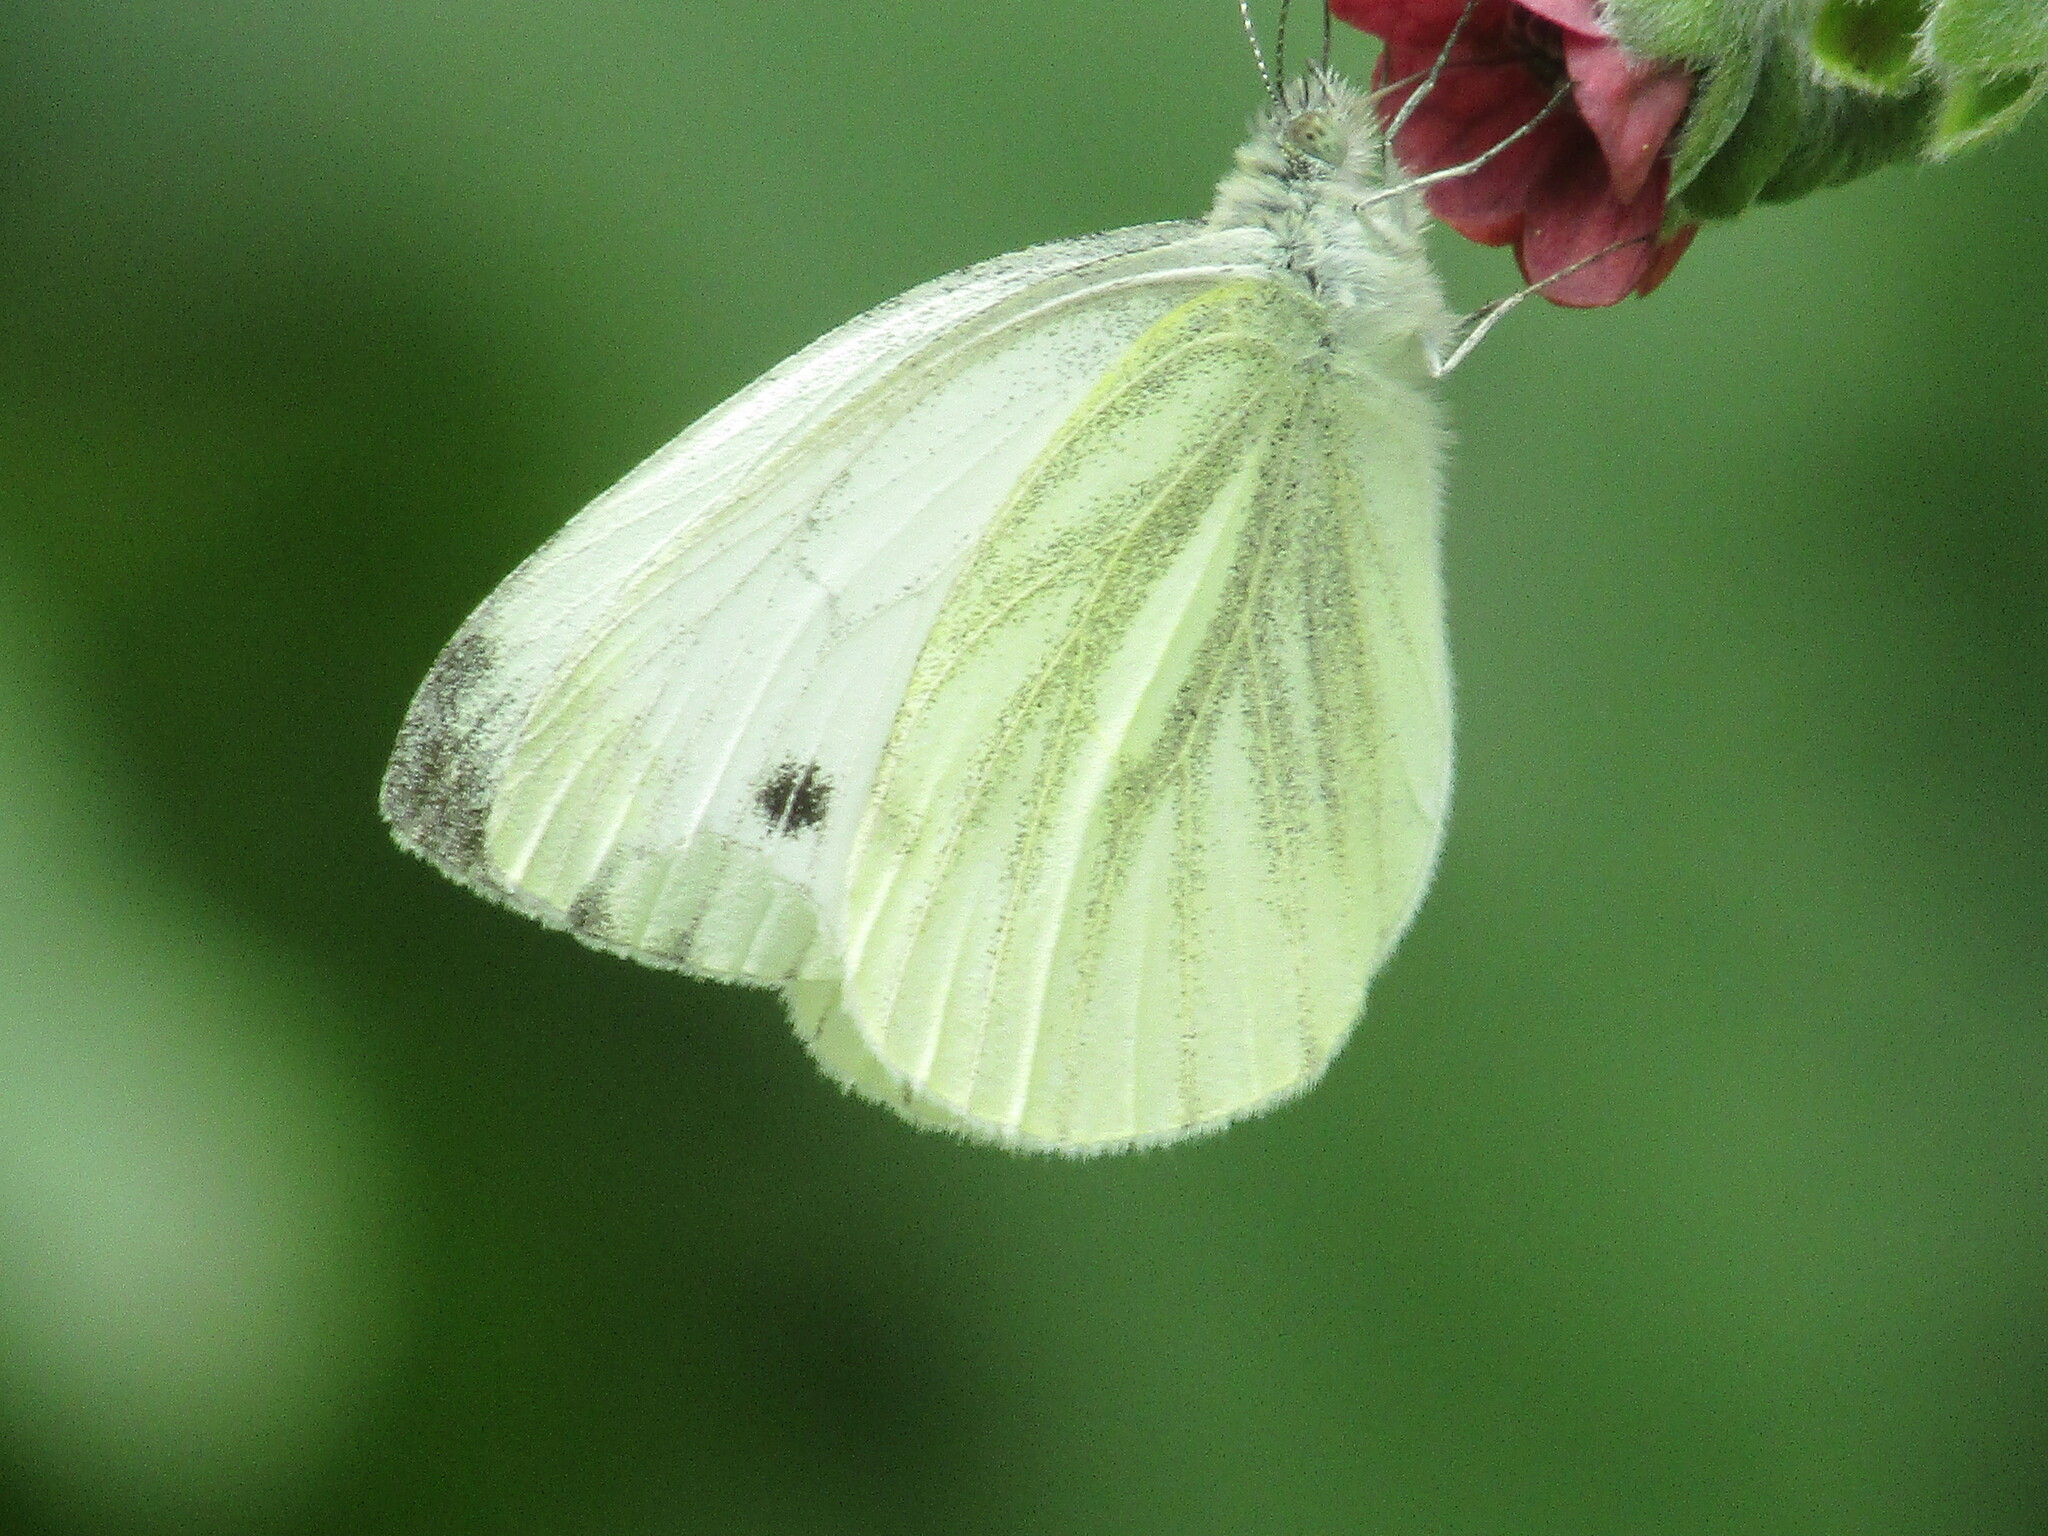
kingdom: Animalia
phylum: Arthropoda
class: Insecta
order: Lepidoptera
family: Pieridae
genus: Pieris
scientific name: Pieris napi
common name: Green-veined white
